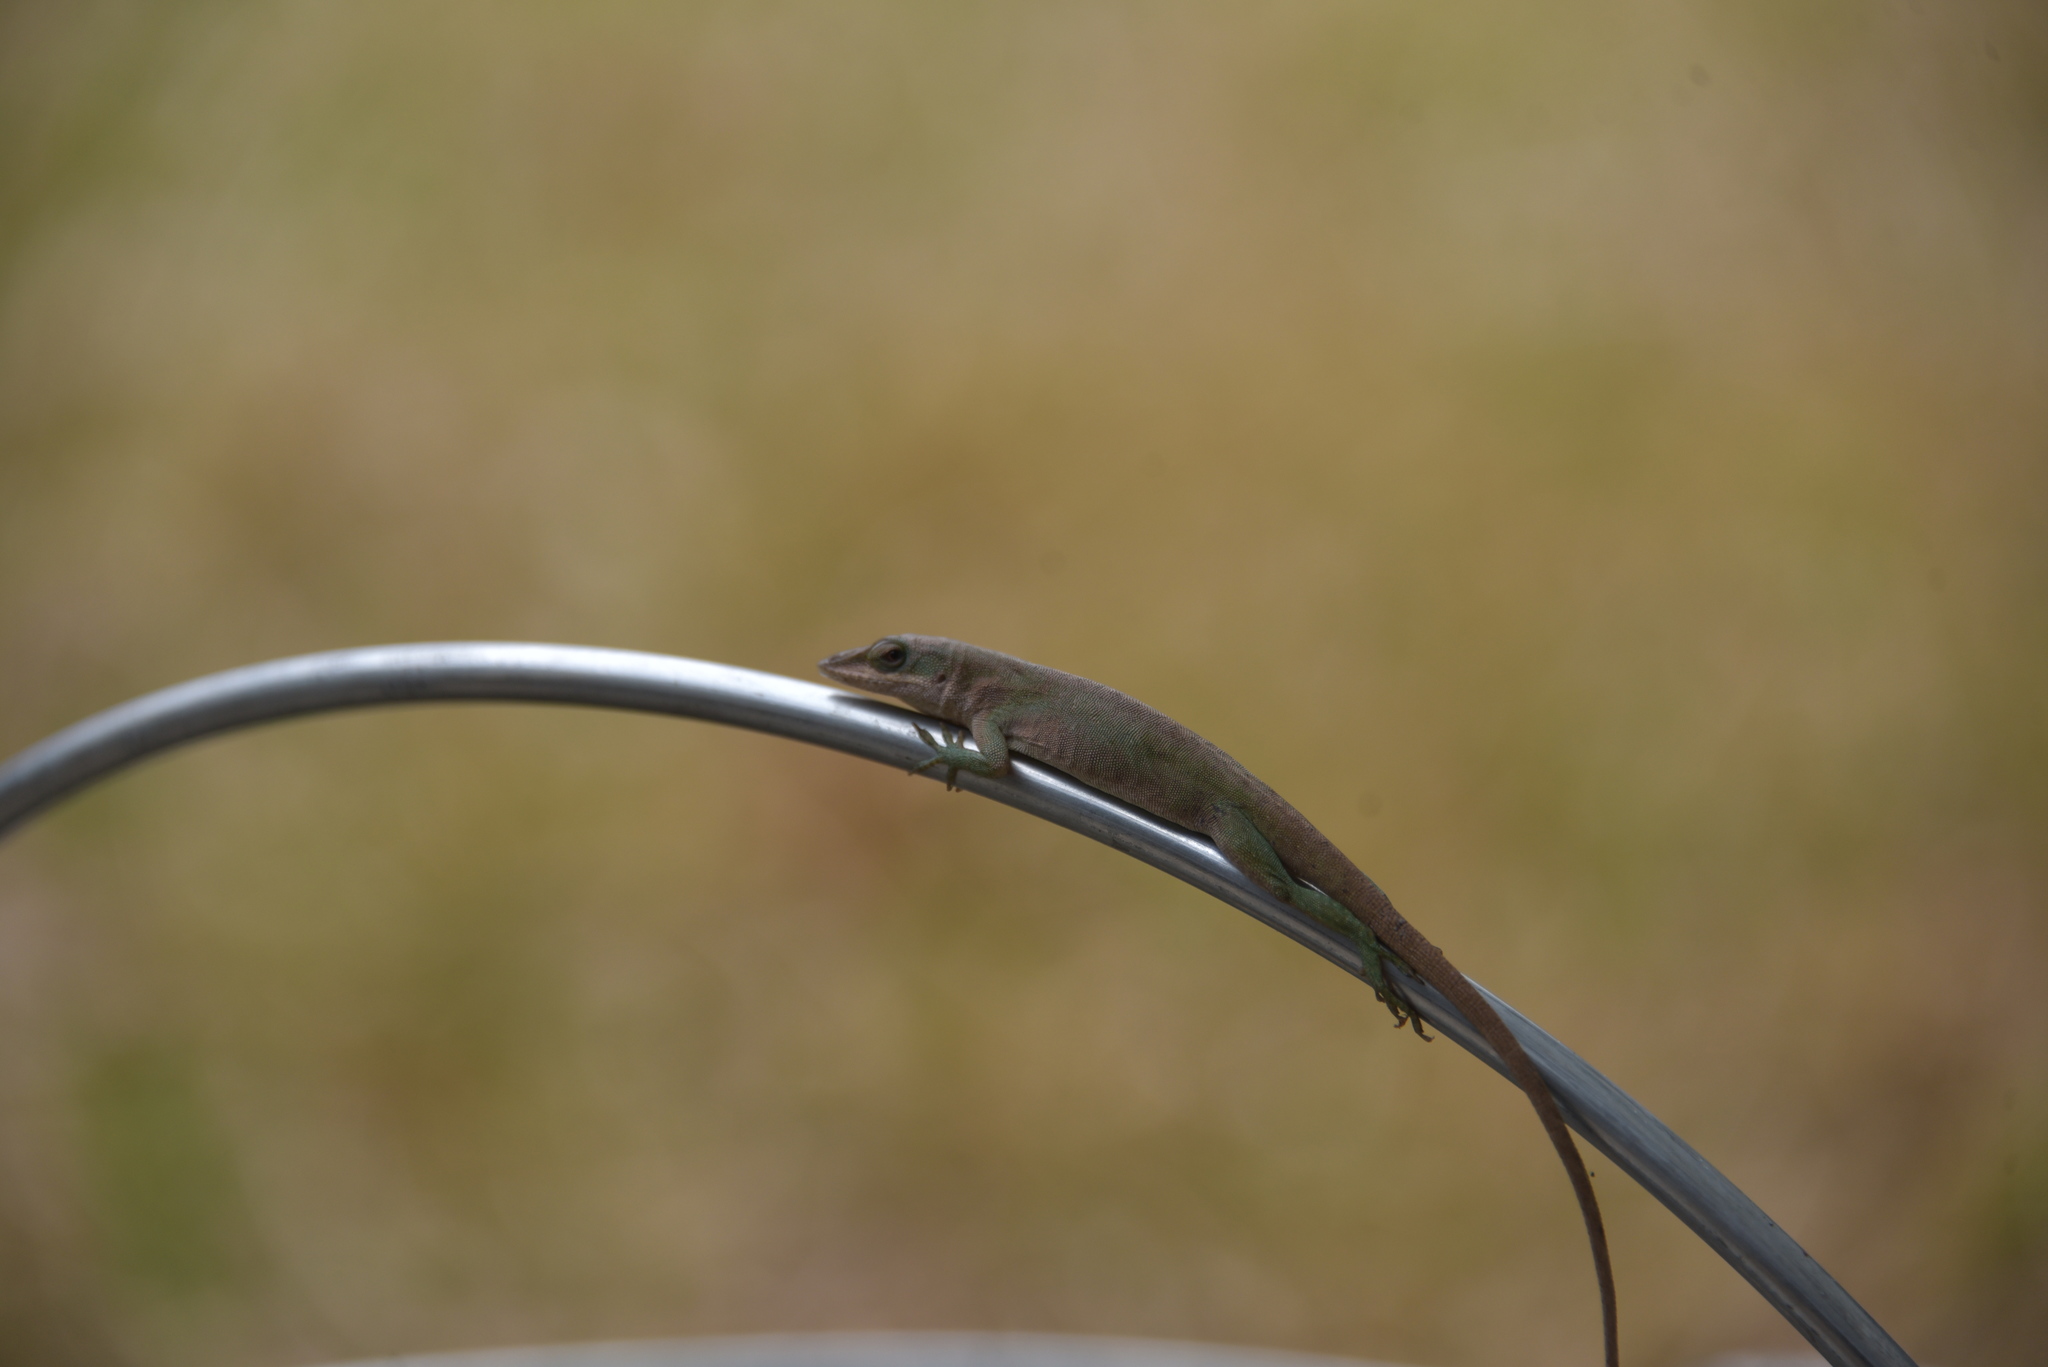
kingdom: Animalia
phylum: Chordata
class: Squamata
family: Dactyloidae
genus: Anolis
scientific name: Anolis carolinensis
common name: Green anole
